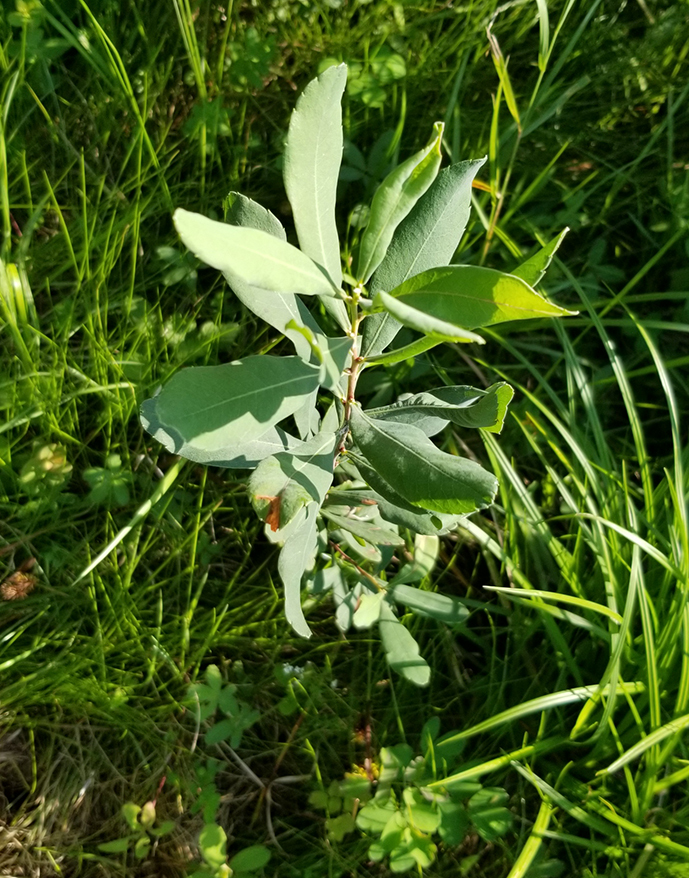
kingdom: Plantae
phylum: Tracheophyta
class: Magnoliopsida
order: Fagales
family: Myricaceae
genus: Myrica
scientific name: Myrica gale
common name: Sweet gale
